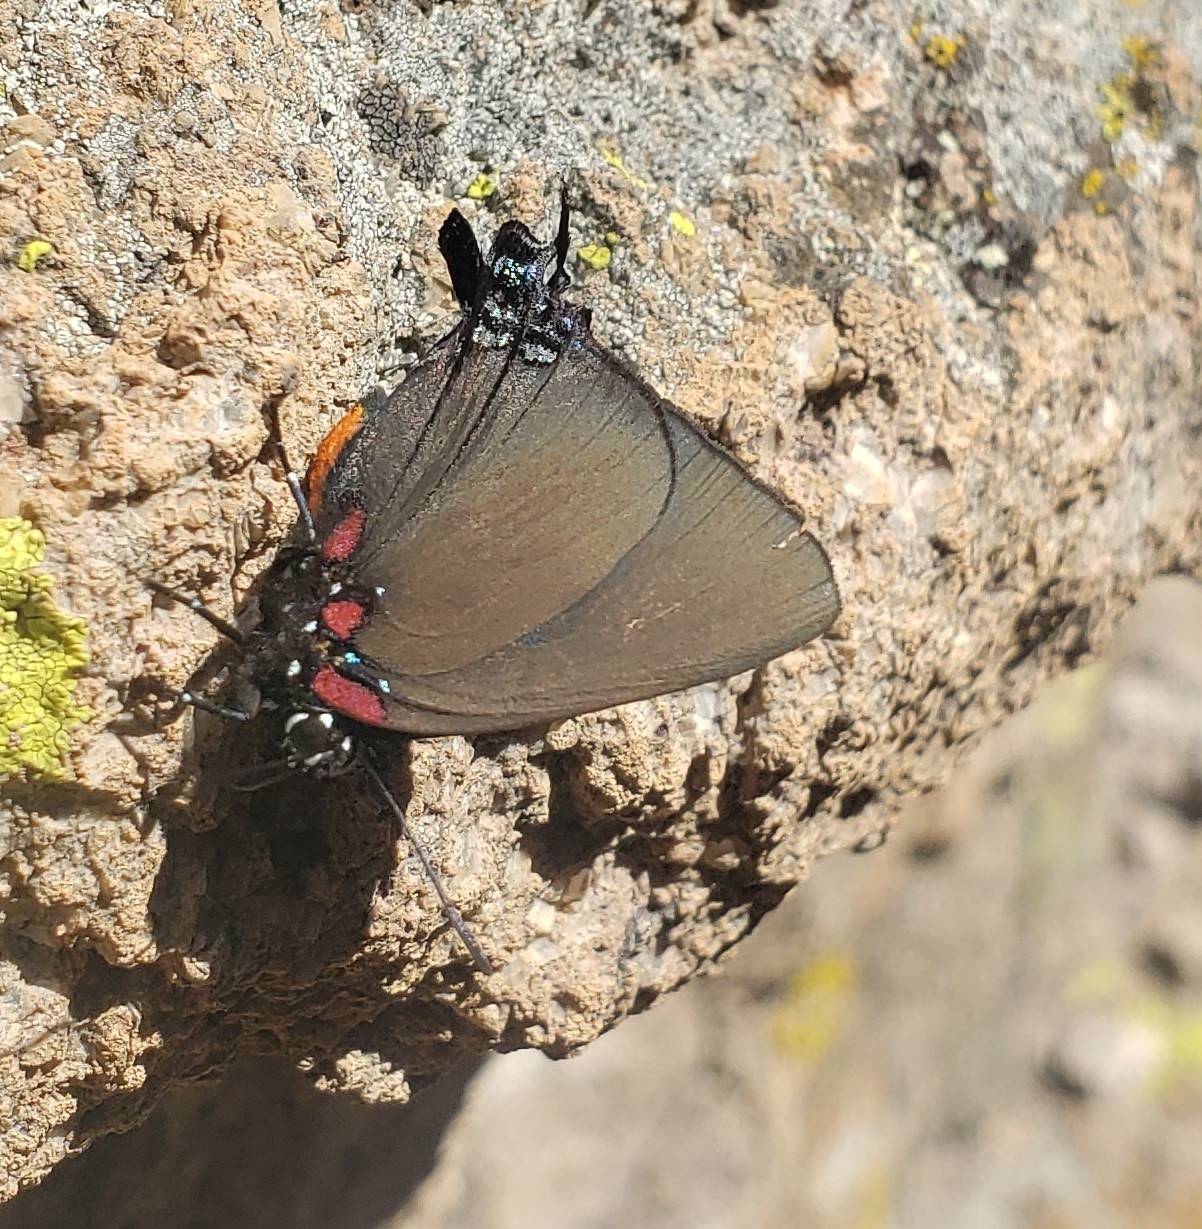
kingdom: Animalia
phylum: Arthropoda
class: Insecta
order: Lepidoptera
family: Lycaenidae
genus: Atlides
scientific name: Atlides halesus
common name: Great purple hairstreak
